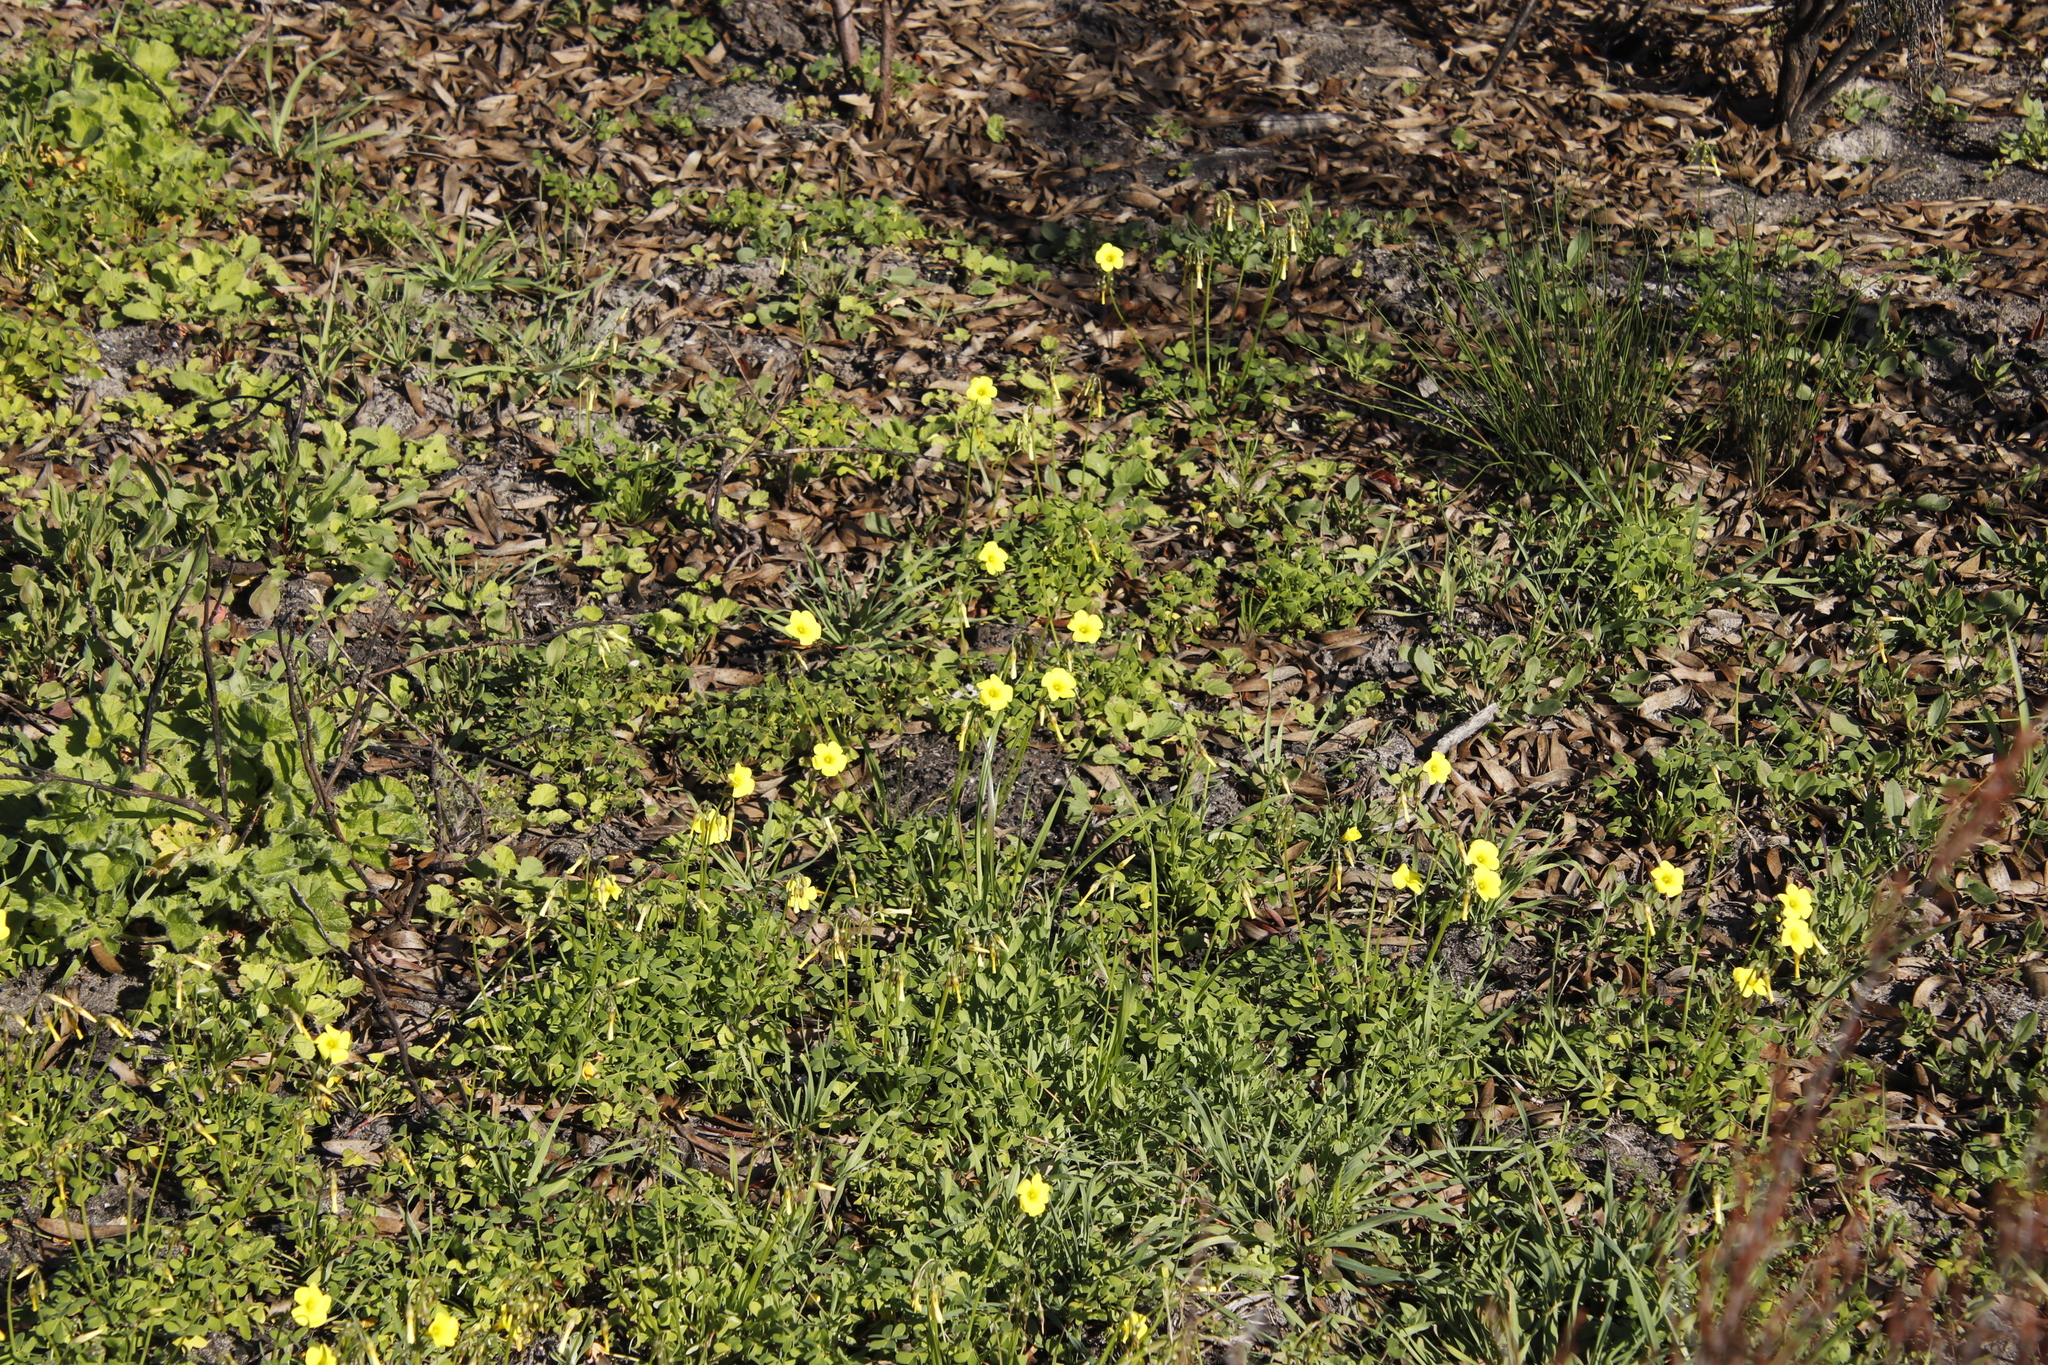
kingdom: Plantae
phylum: Tracheophyta
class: Magnoliopsida
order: Oxalidales
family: Oxalidaceae
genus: Oxalis
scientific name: Oxalis pes-caprae
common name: Bermuda-buttercup
